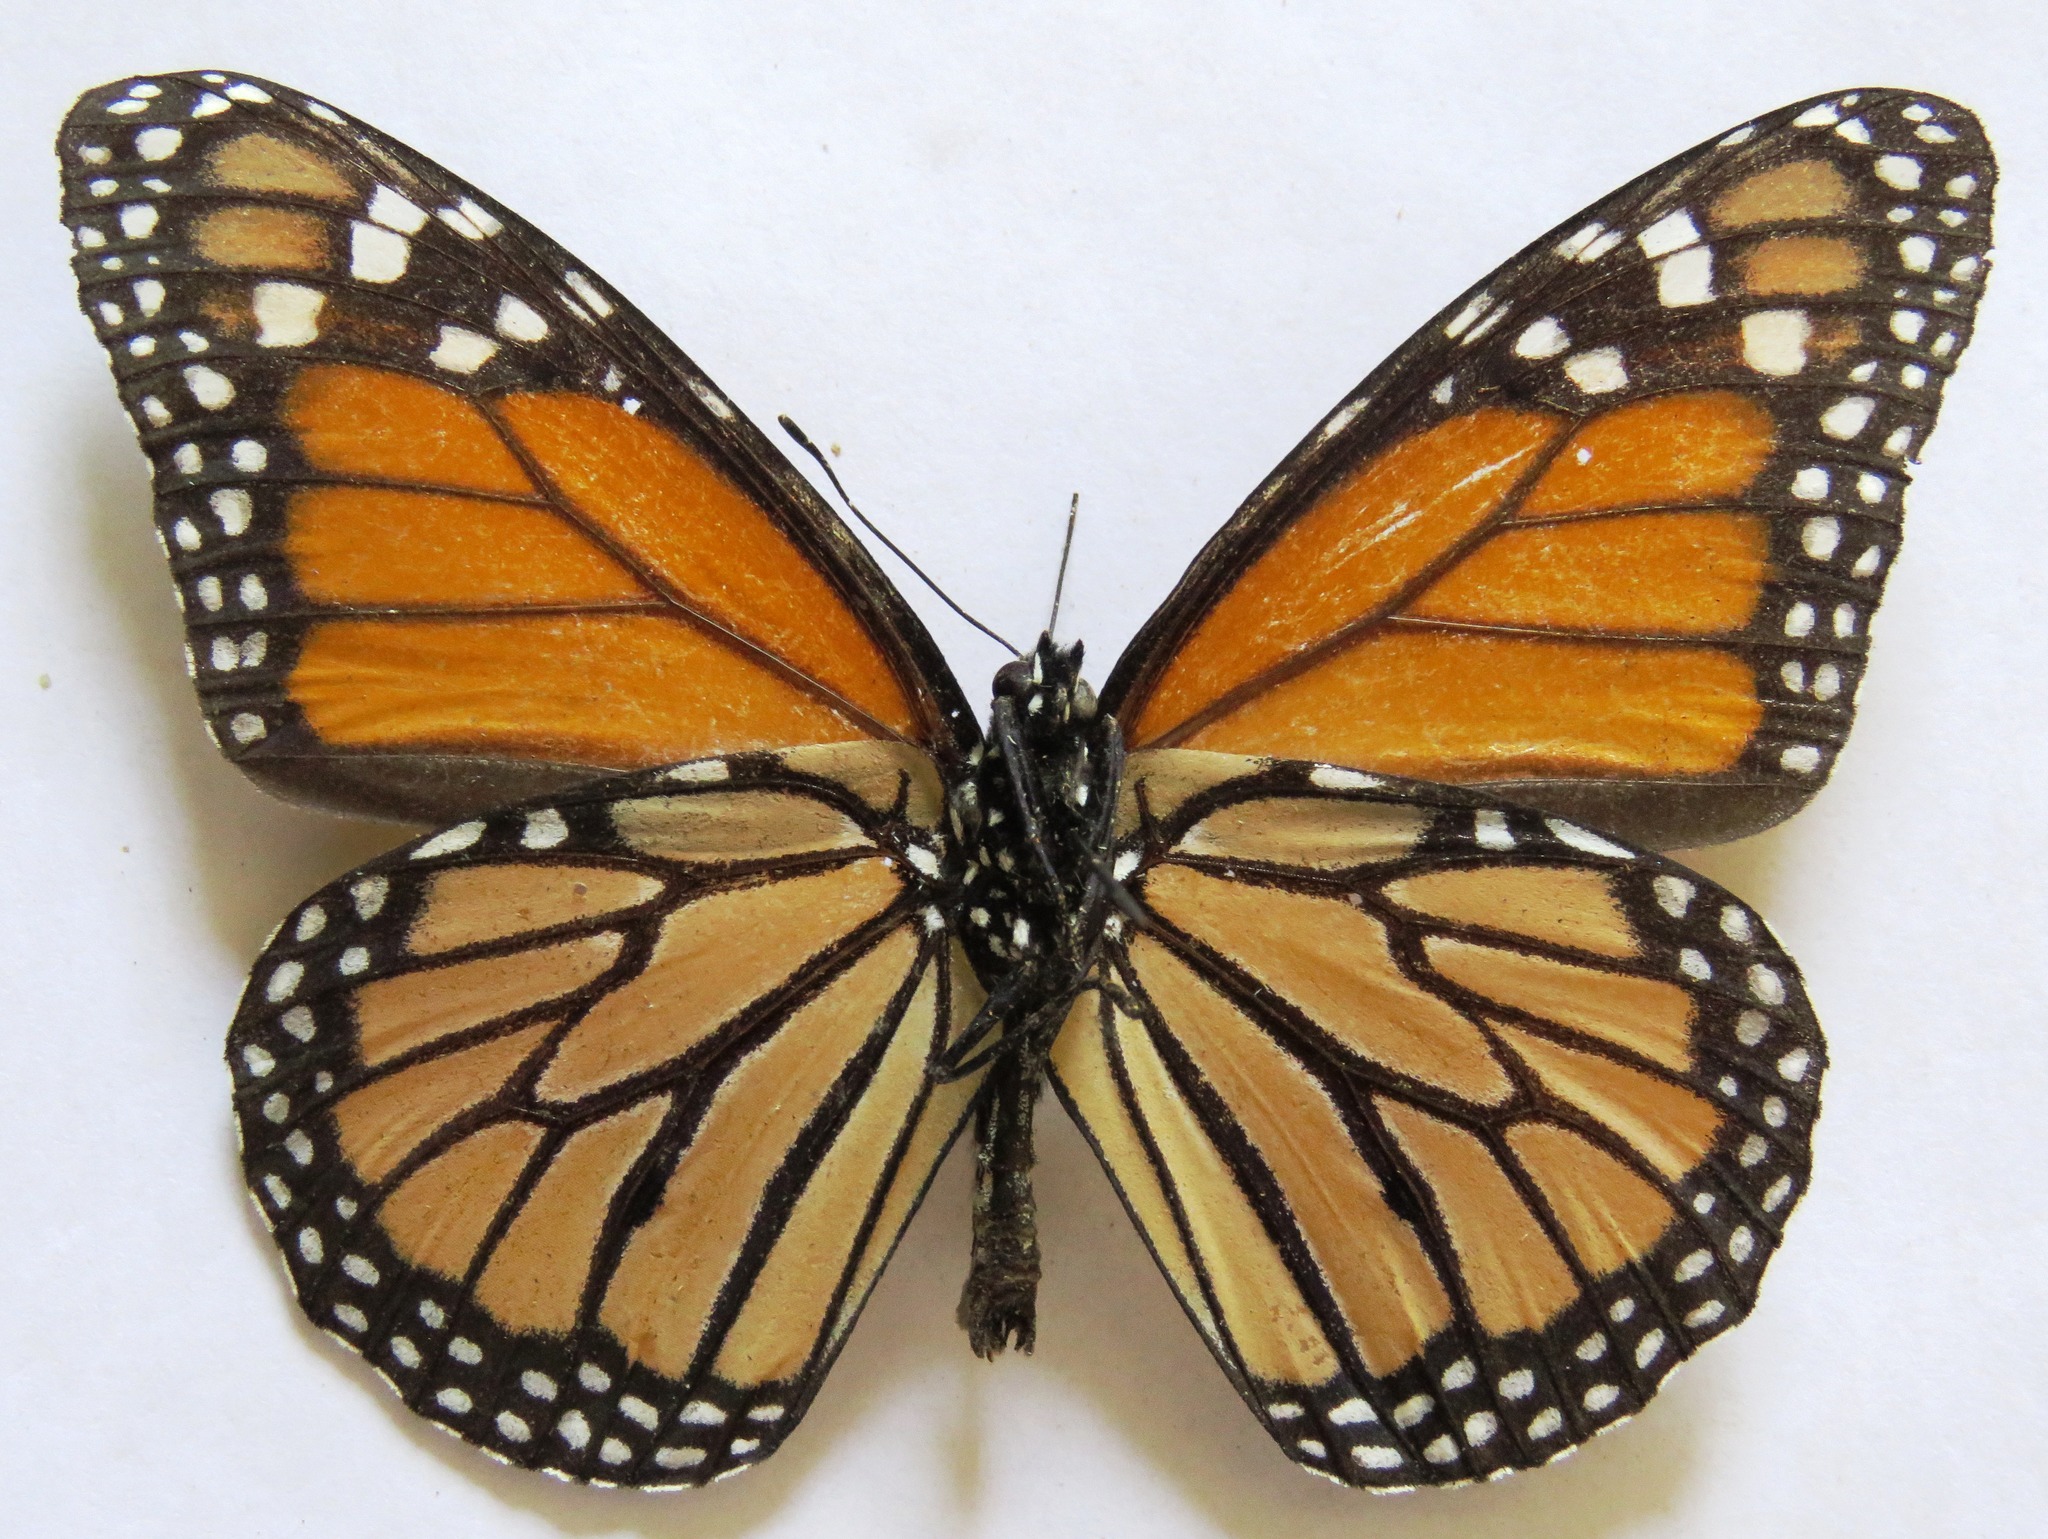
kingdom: Animalia
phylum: Arthropoda
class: Insecta
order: Lepidoptera
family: Nymphalidae
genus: Danaus
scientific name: Danaus plexippus
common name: Monarch
